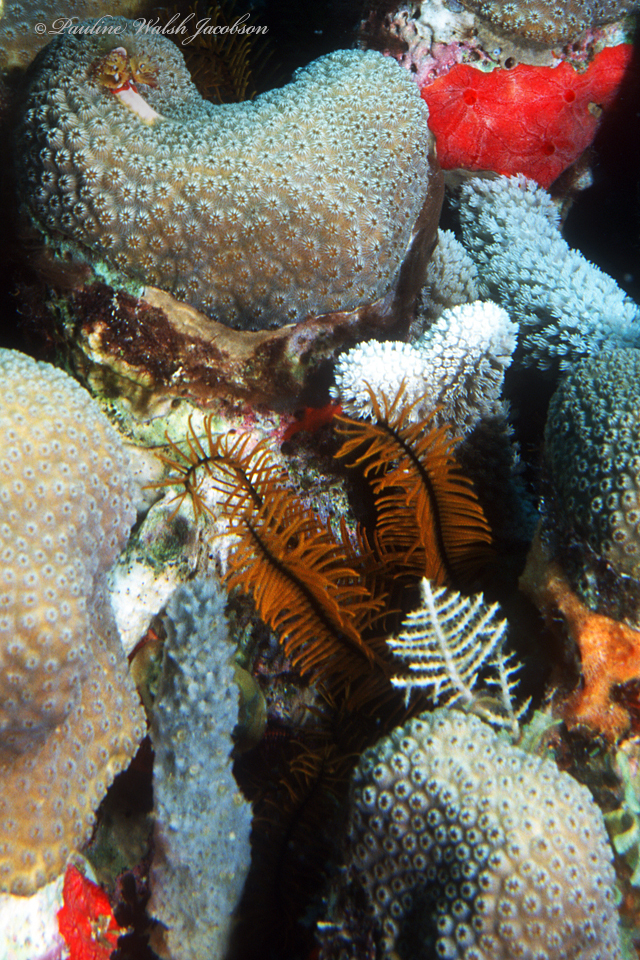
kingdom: Animalia
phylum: Echinodermata
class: Crinoidea
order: Comatulida
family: Comatulidae
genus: Davidaster
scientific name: Davidaster rubiginosus
